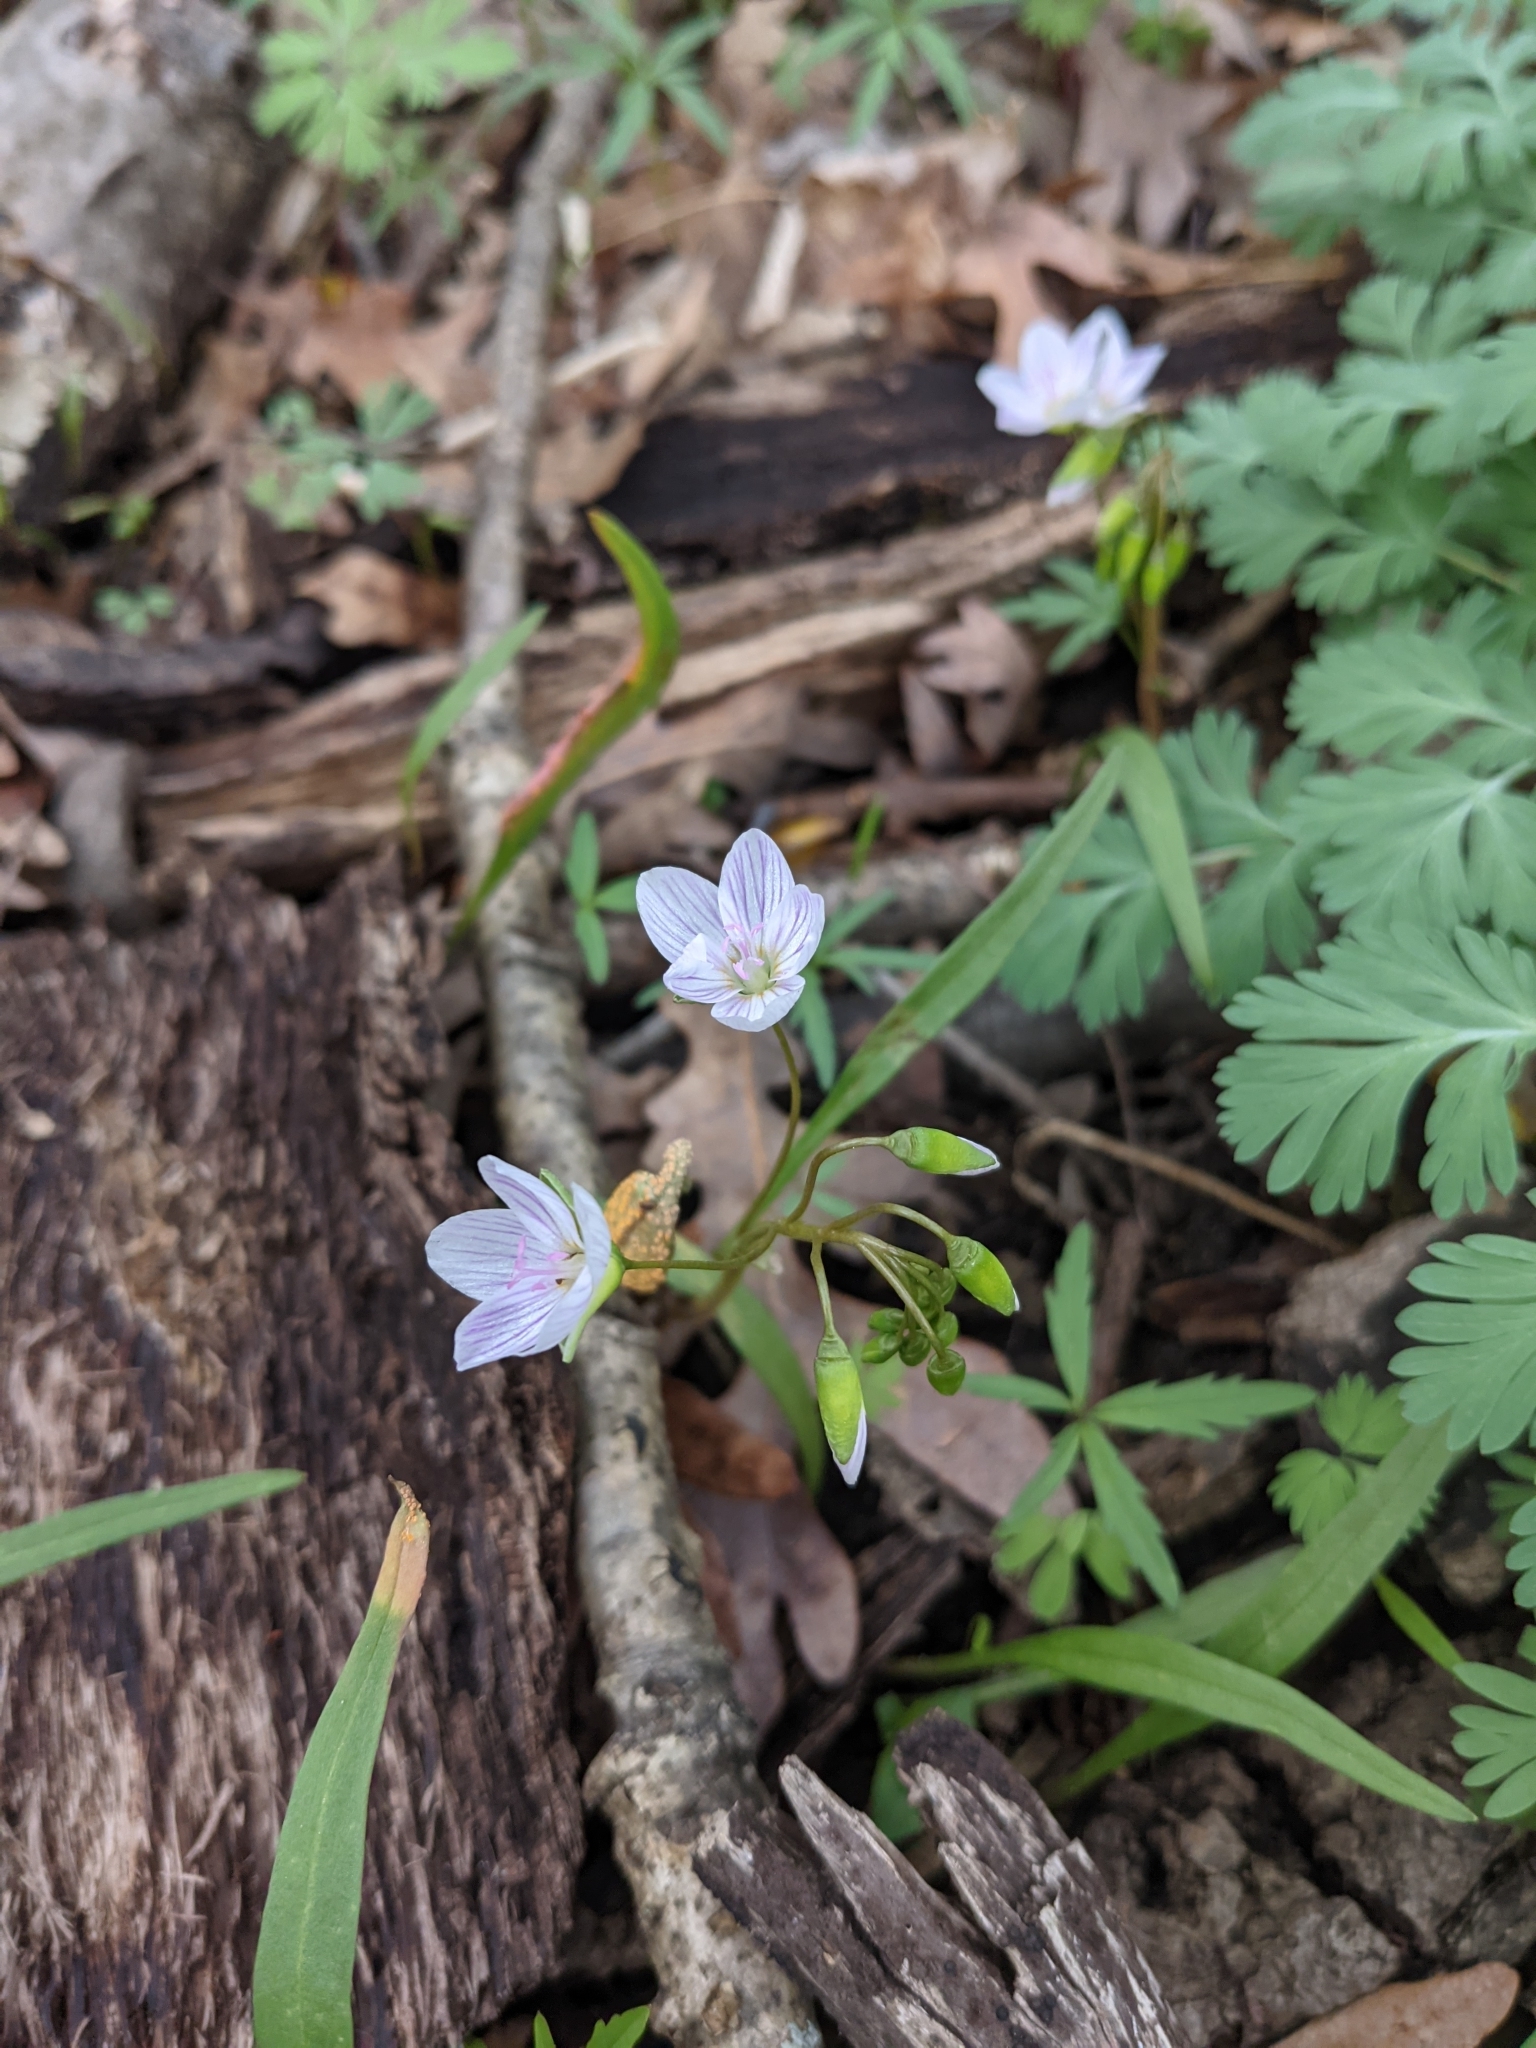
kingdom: Plantae
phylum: Tracheophyta
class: Magnoliopsida
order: Caryophyllales
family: Montiaceae
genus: Claytonia
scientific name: Claytonia virginica
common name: Virginia springbeauty
